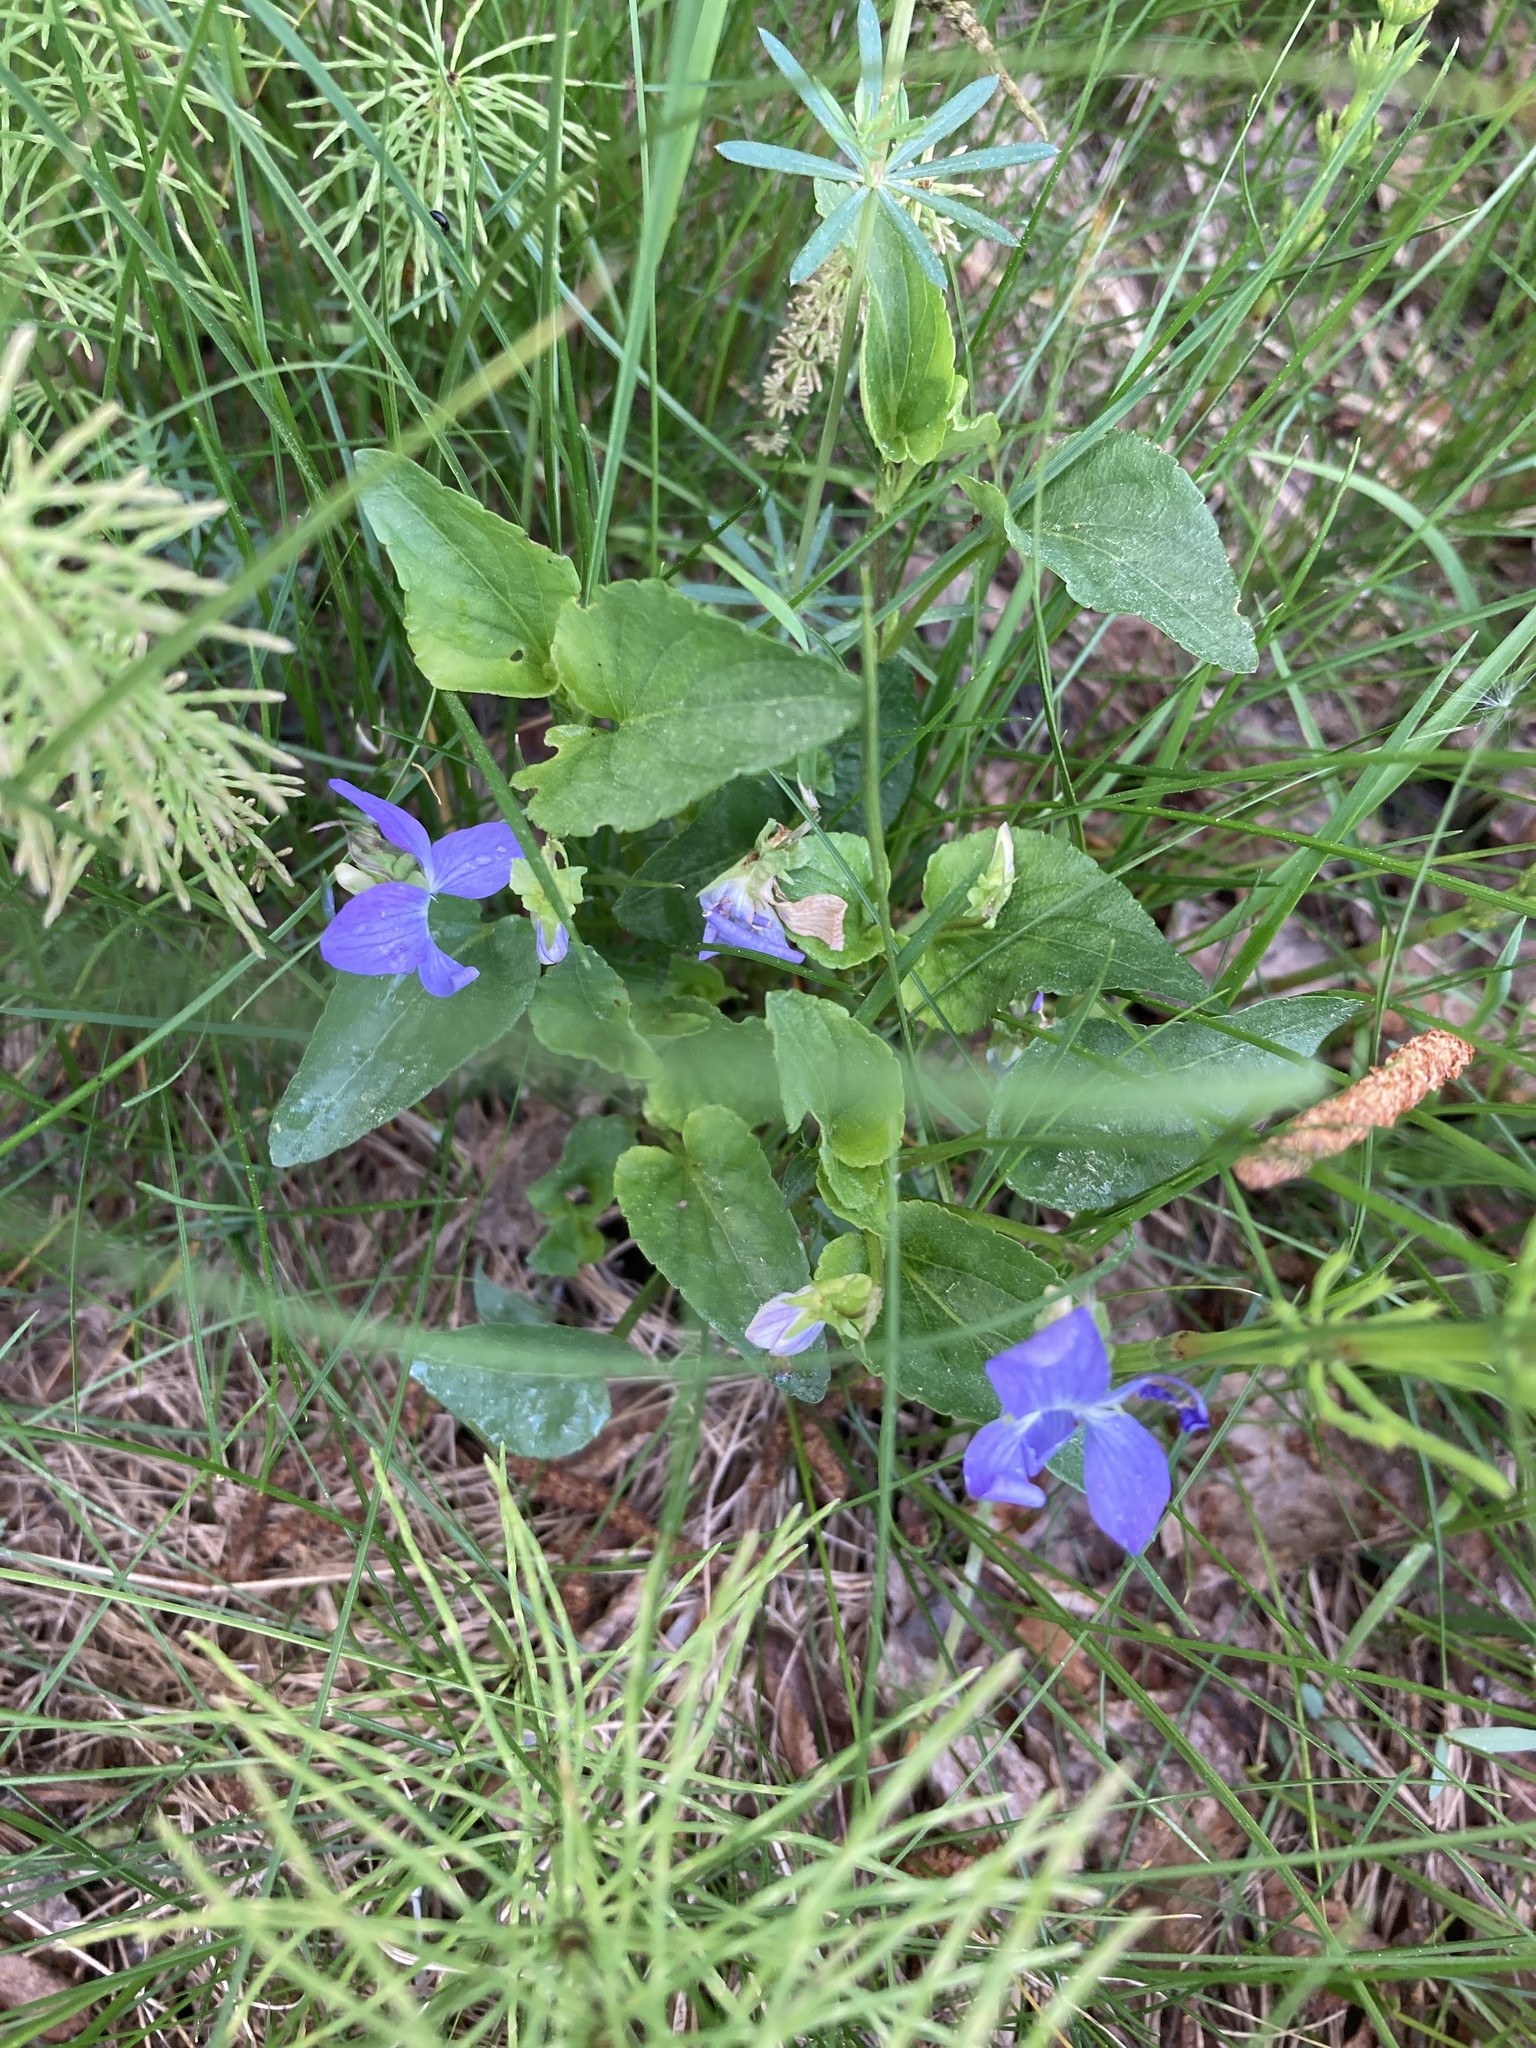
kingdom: Plantae
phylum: Tracheophyta
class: Magnoliopsida
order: Malpighiales
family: Violaceae
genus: Viola
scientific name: Viola canina
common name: Heath dog-violet
